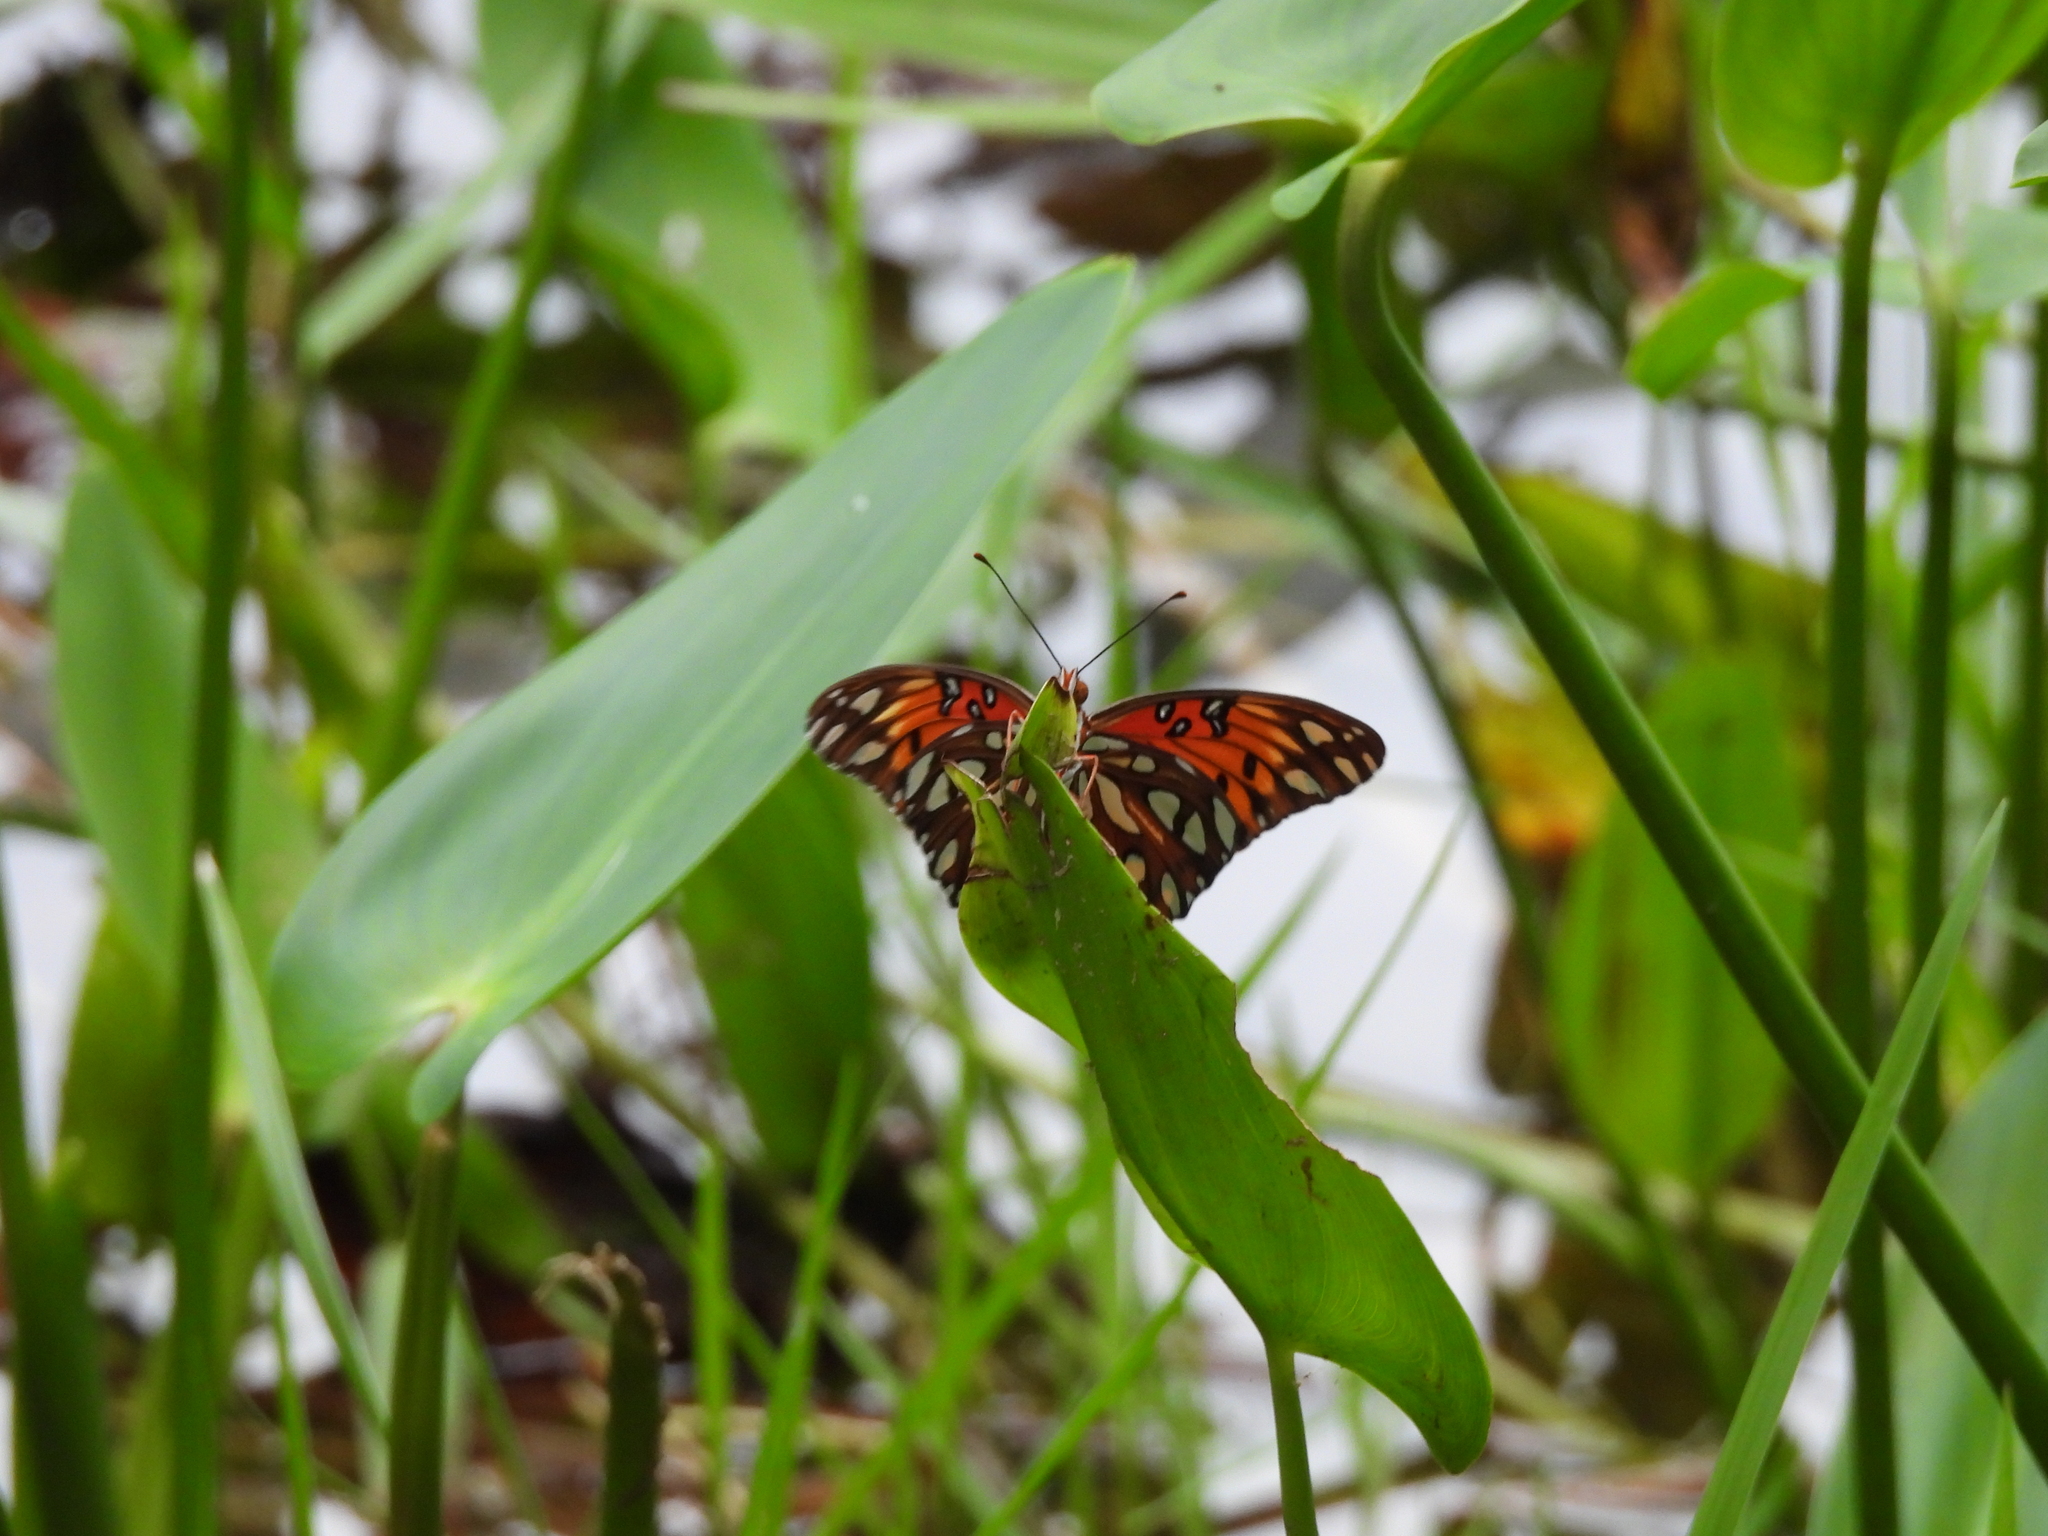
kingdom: Animalia
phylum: Arthropoda
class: Insecta
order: Lepidoptera
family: Nymphalidae
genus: Dione
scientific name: Dione vanillae
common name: Gulf fritillary
